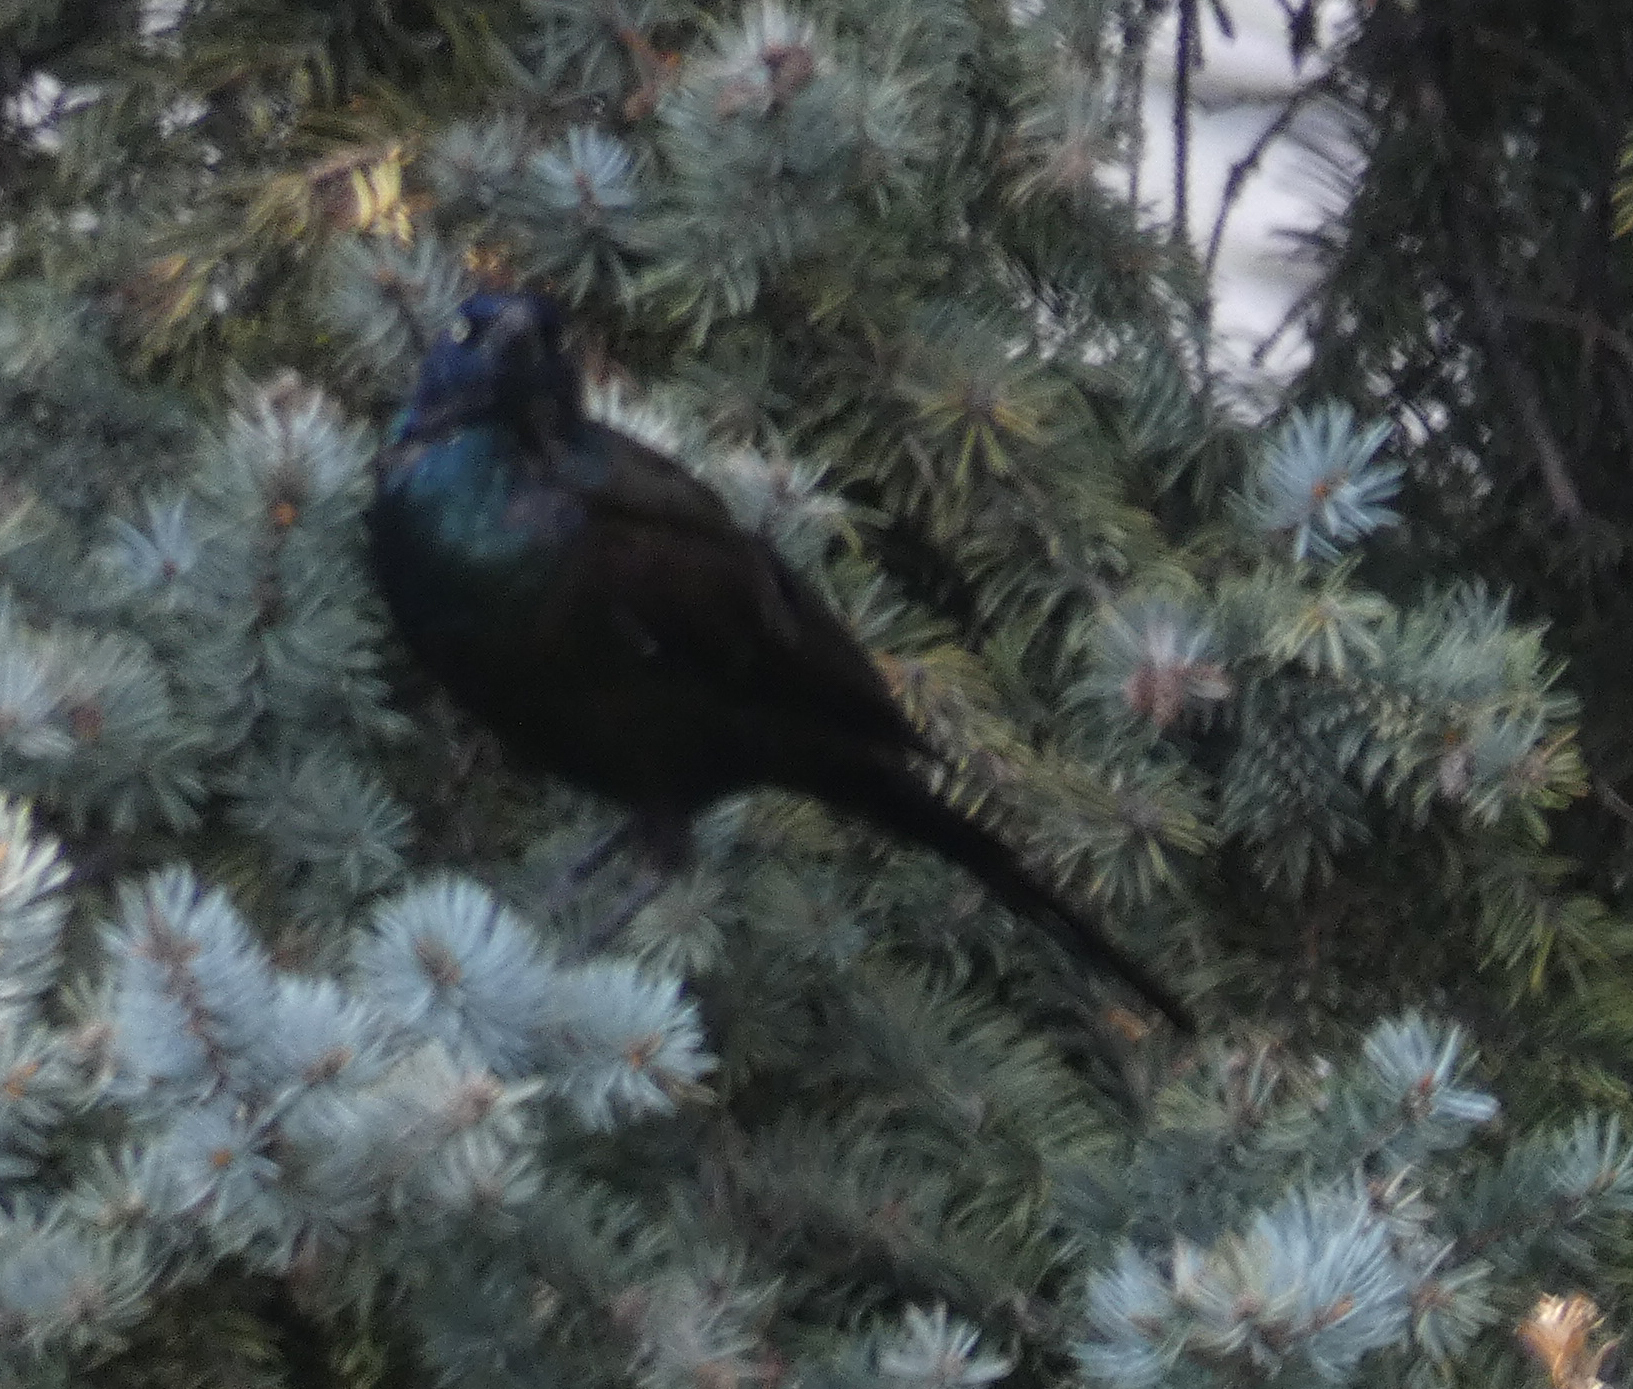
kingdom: Animalia
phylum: Chordata
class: Aves
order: Passeriformes
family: Icteridae
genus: Quiscalus
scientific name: Quiscalus quiscula
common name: Common grackle
